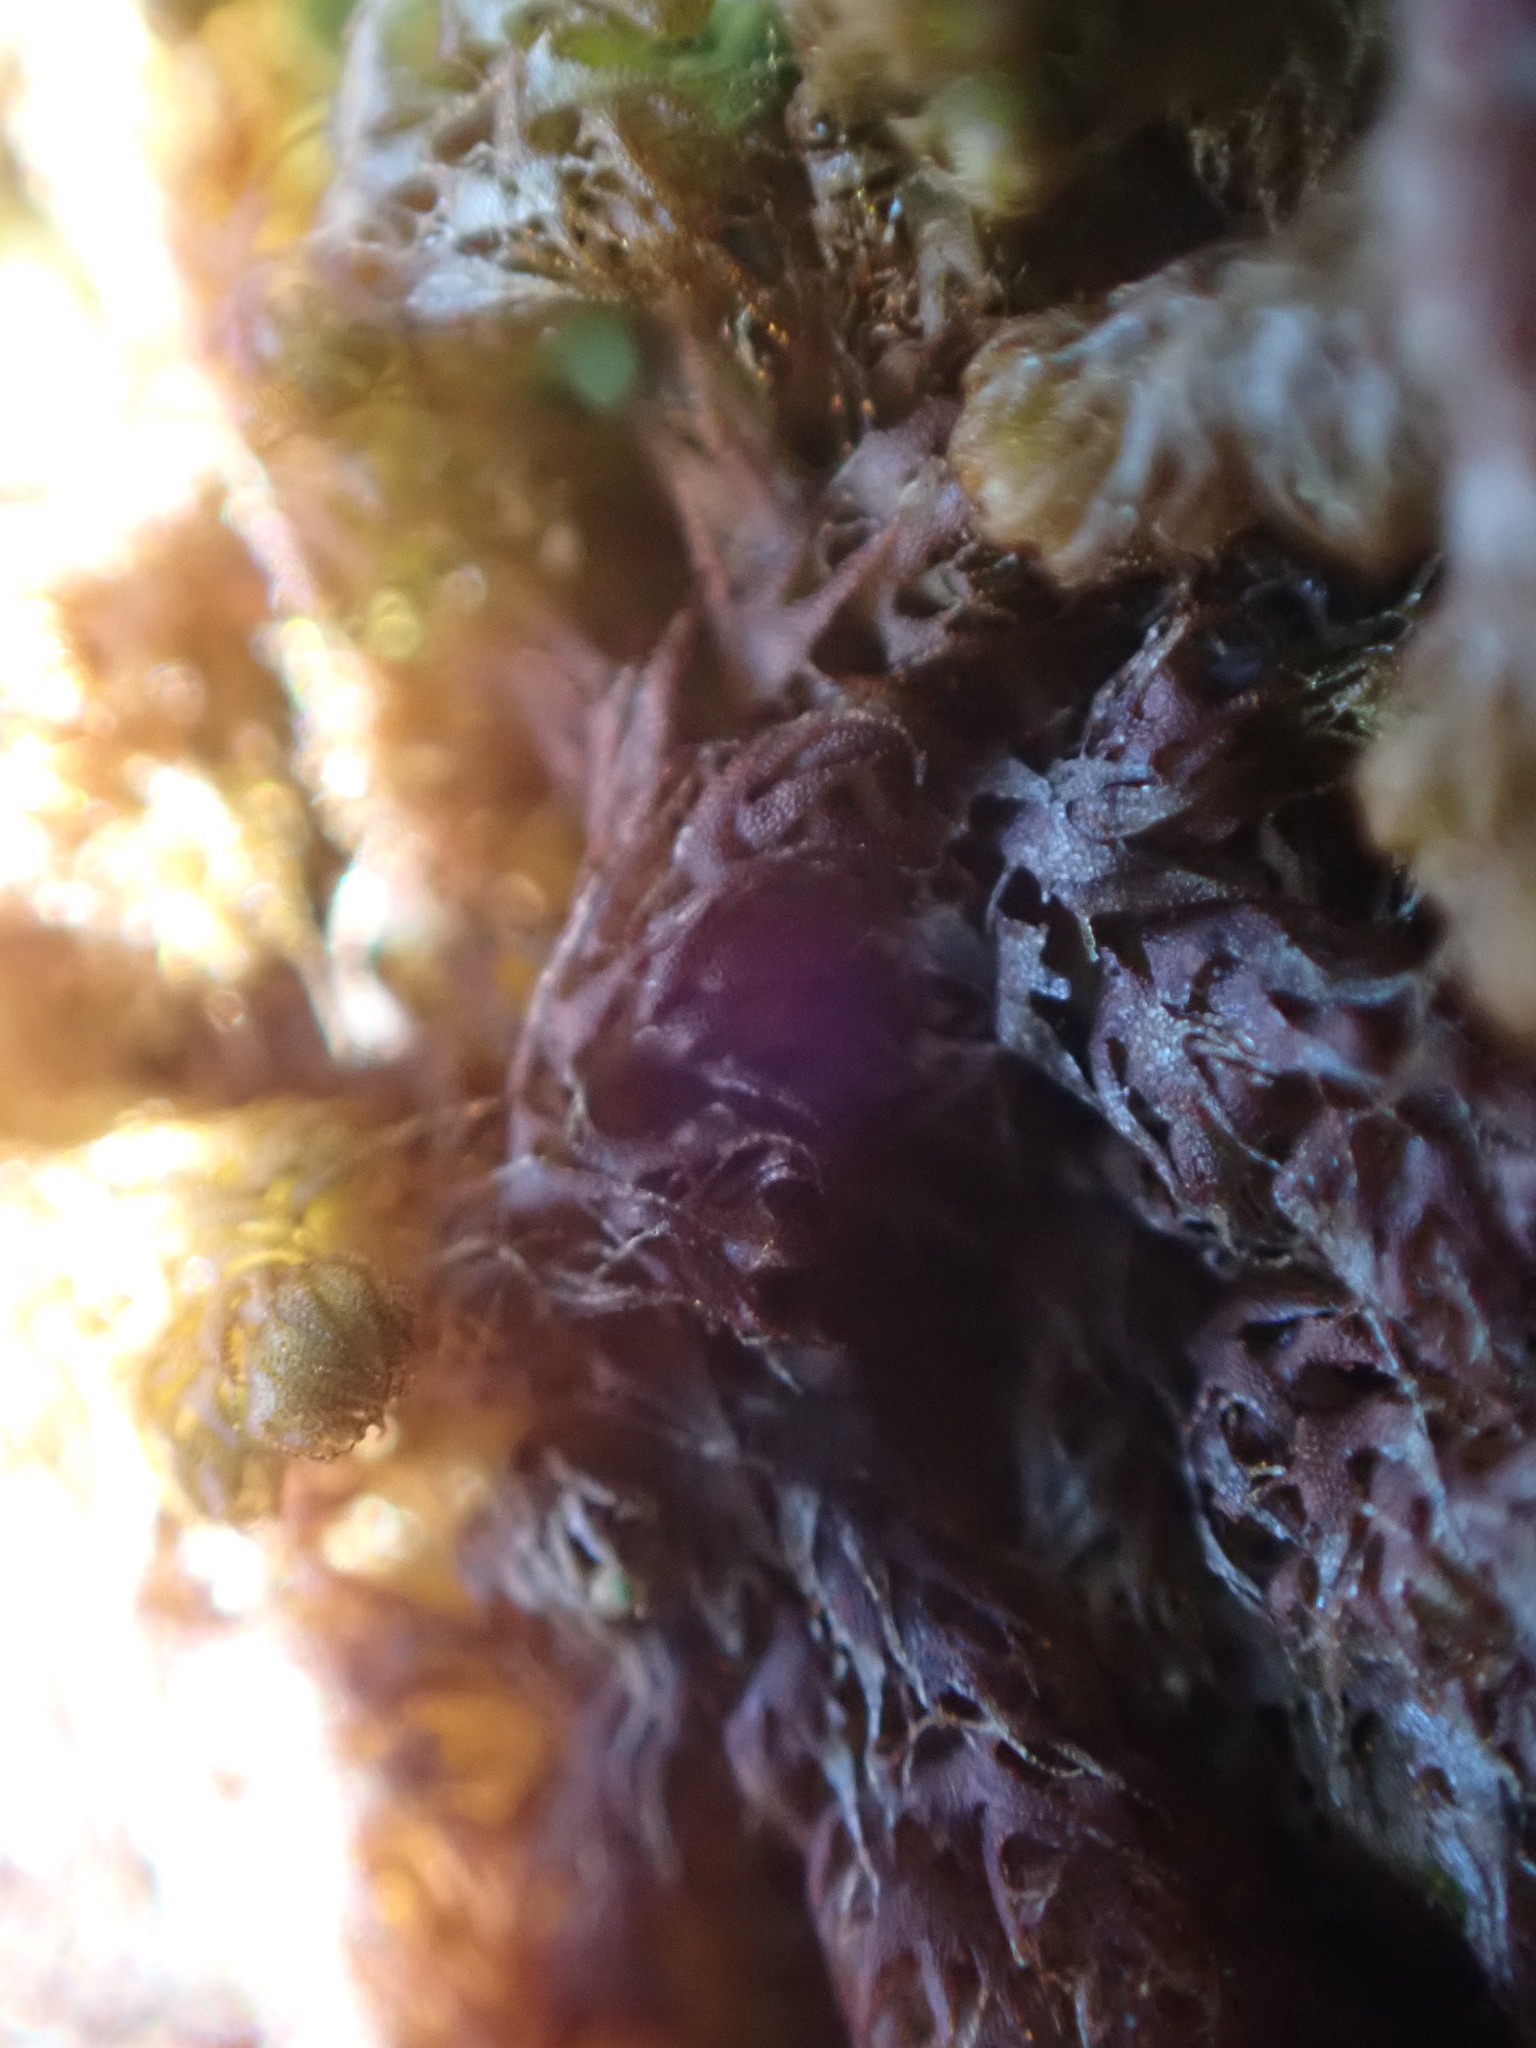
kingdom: Plantae
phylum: Marchantiophyta
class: Jungermanniopsida
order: Ptilidiales
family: Ptilidiaceae
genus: Ptilidium
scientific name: Ptilidium californicum
